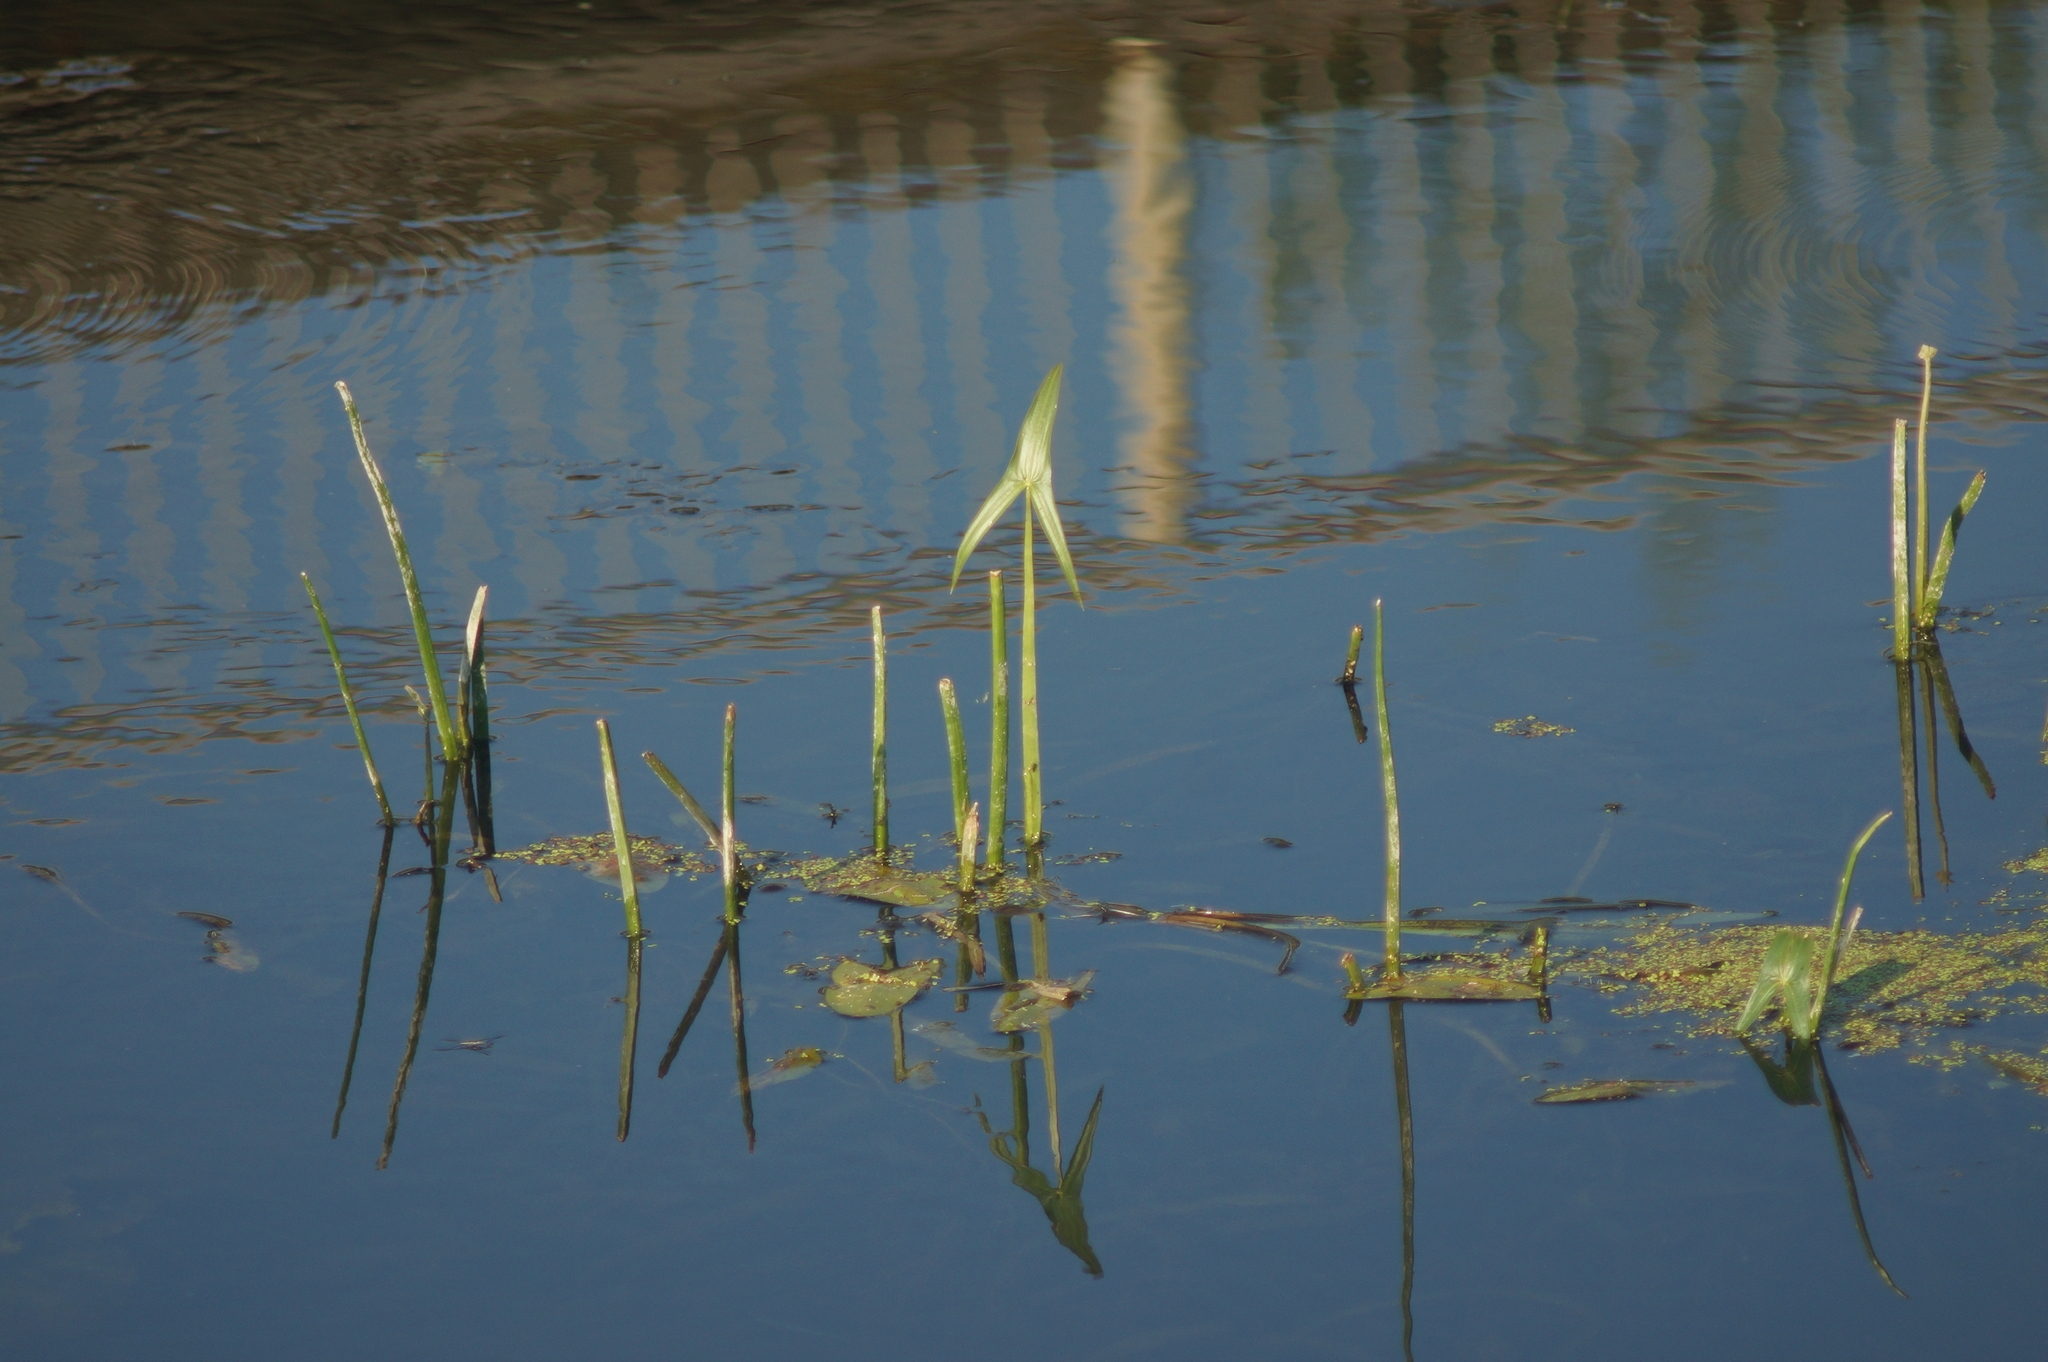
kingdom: Plantae
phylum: Tracheophyta
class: Liliopsida
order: Alismatales
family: Alismataceae
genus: Sagittaria
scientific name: Sagittaria sagittifolia
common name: Arrowhead
